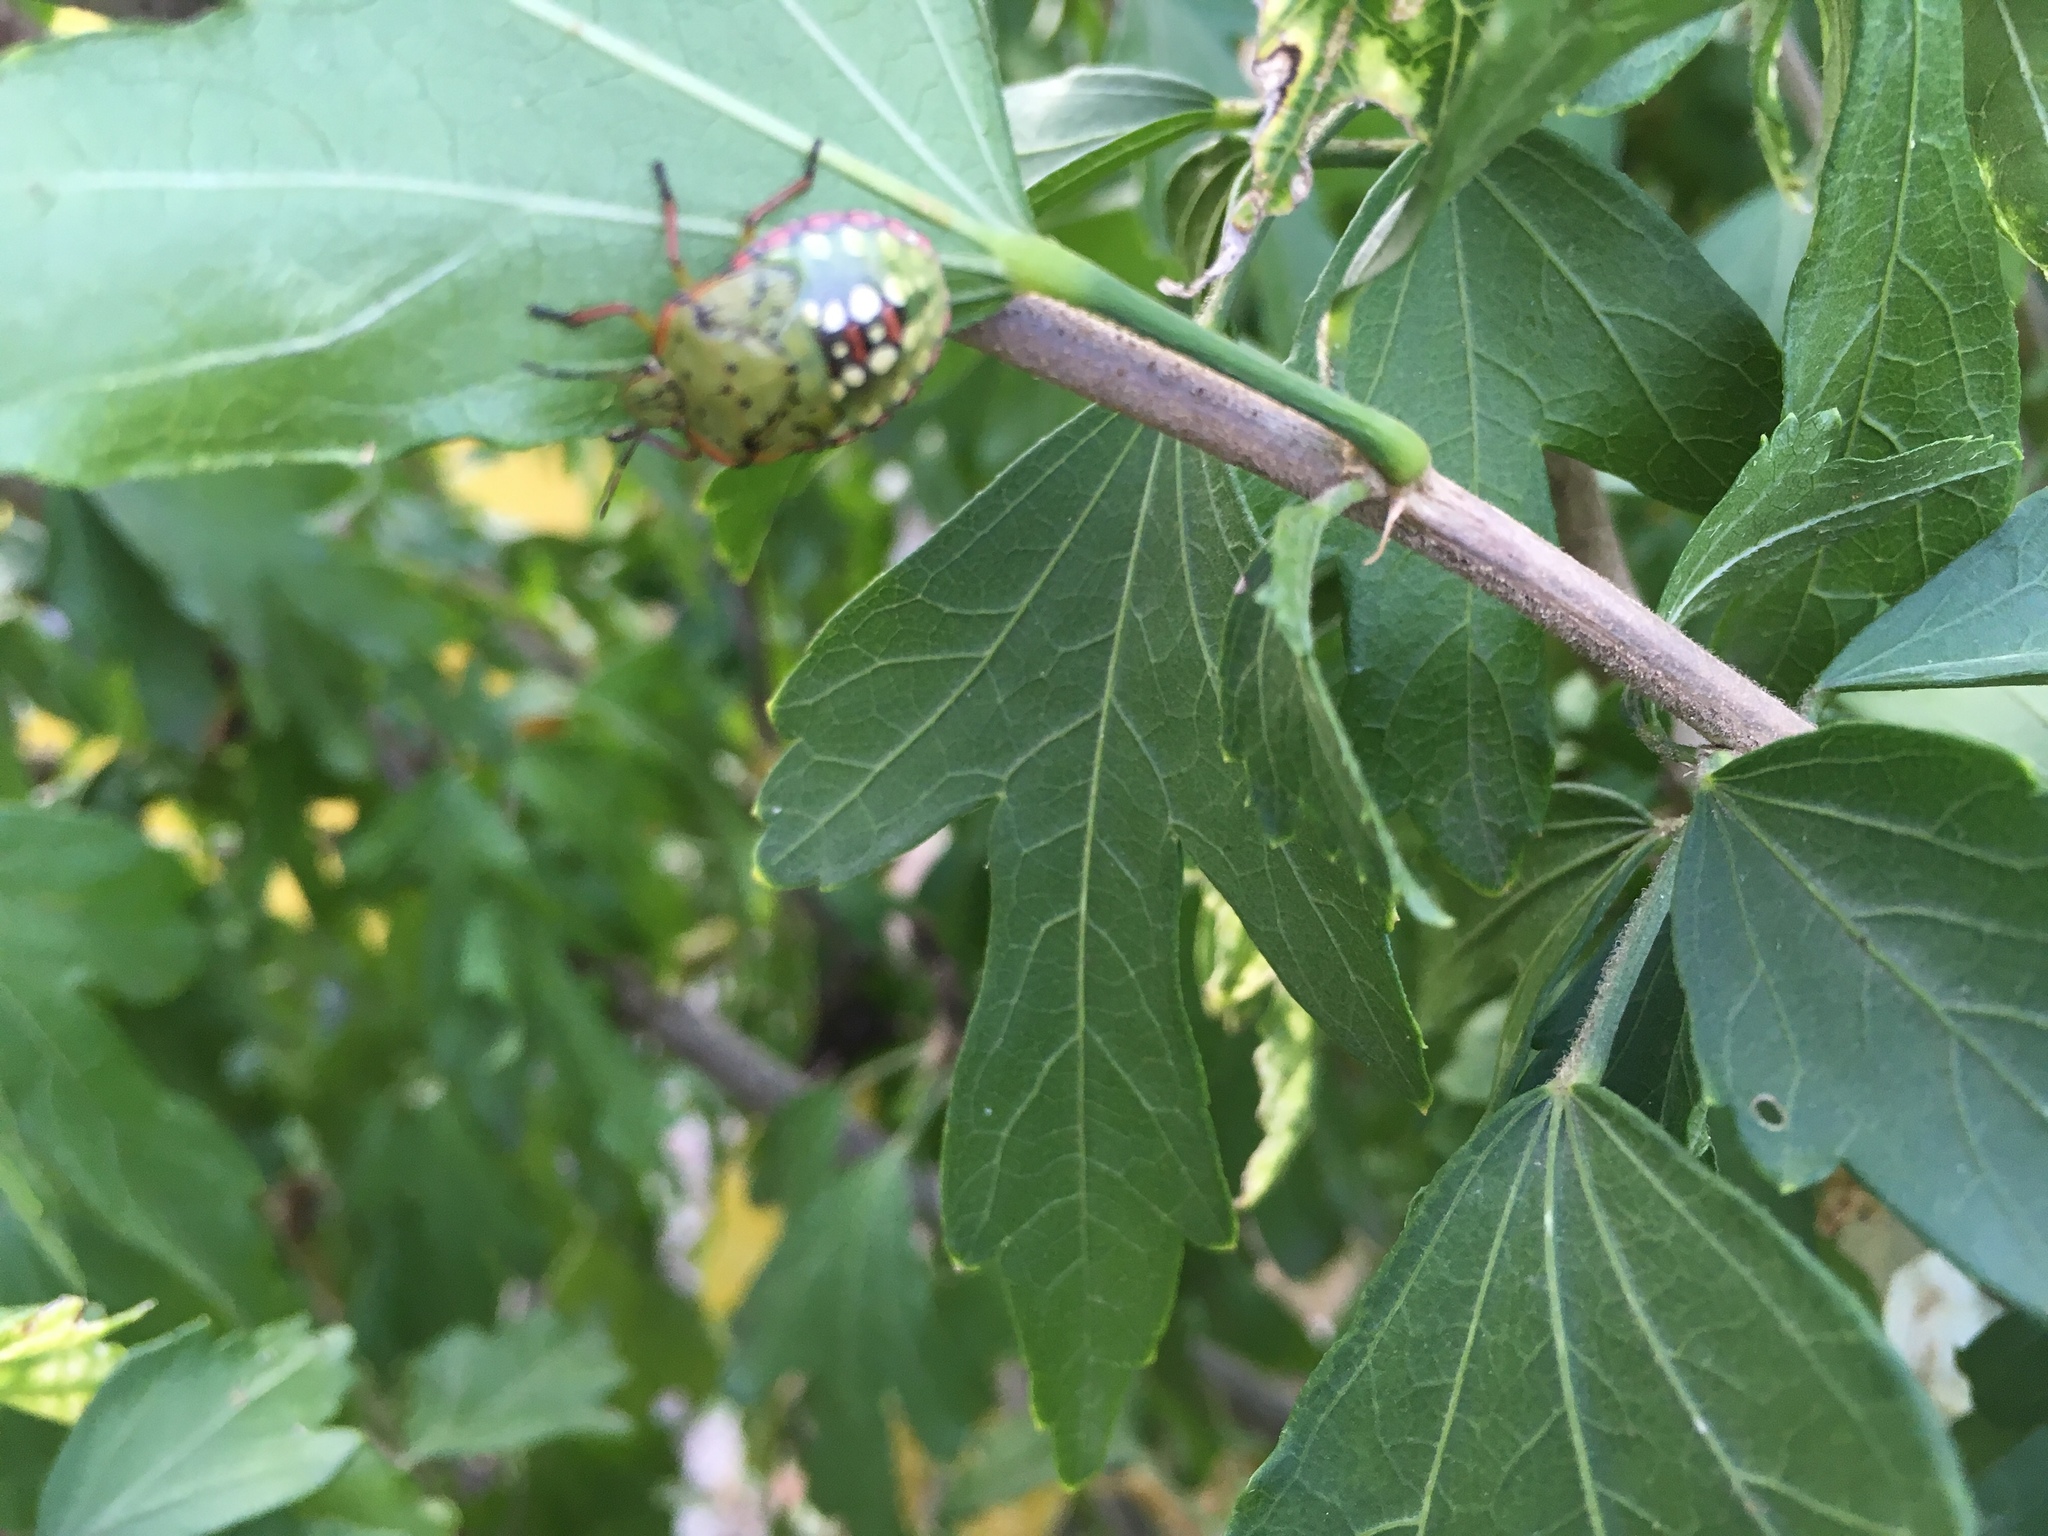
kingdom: Animalia
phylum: Arthropoda
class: Insecta
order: Hemiptera
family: Pentatomidae
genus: Nezara
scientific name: Nezara viridula
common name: Southern green stink bug
